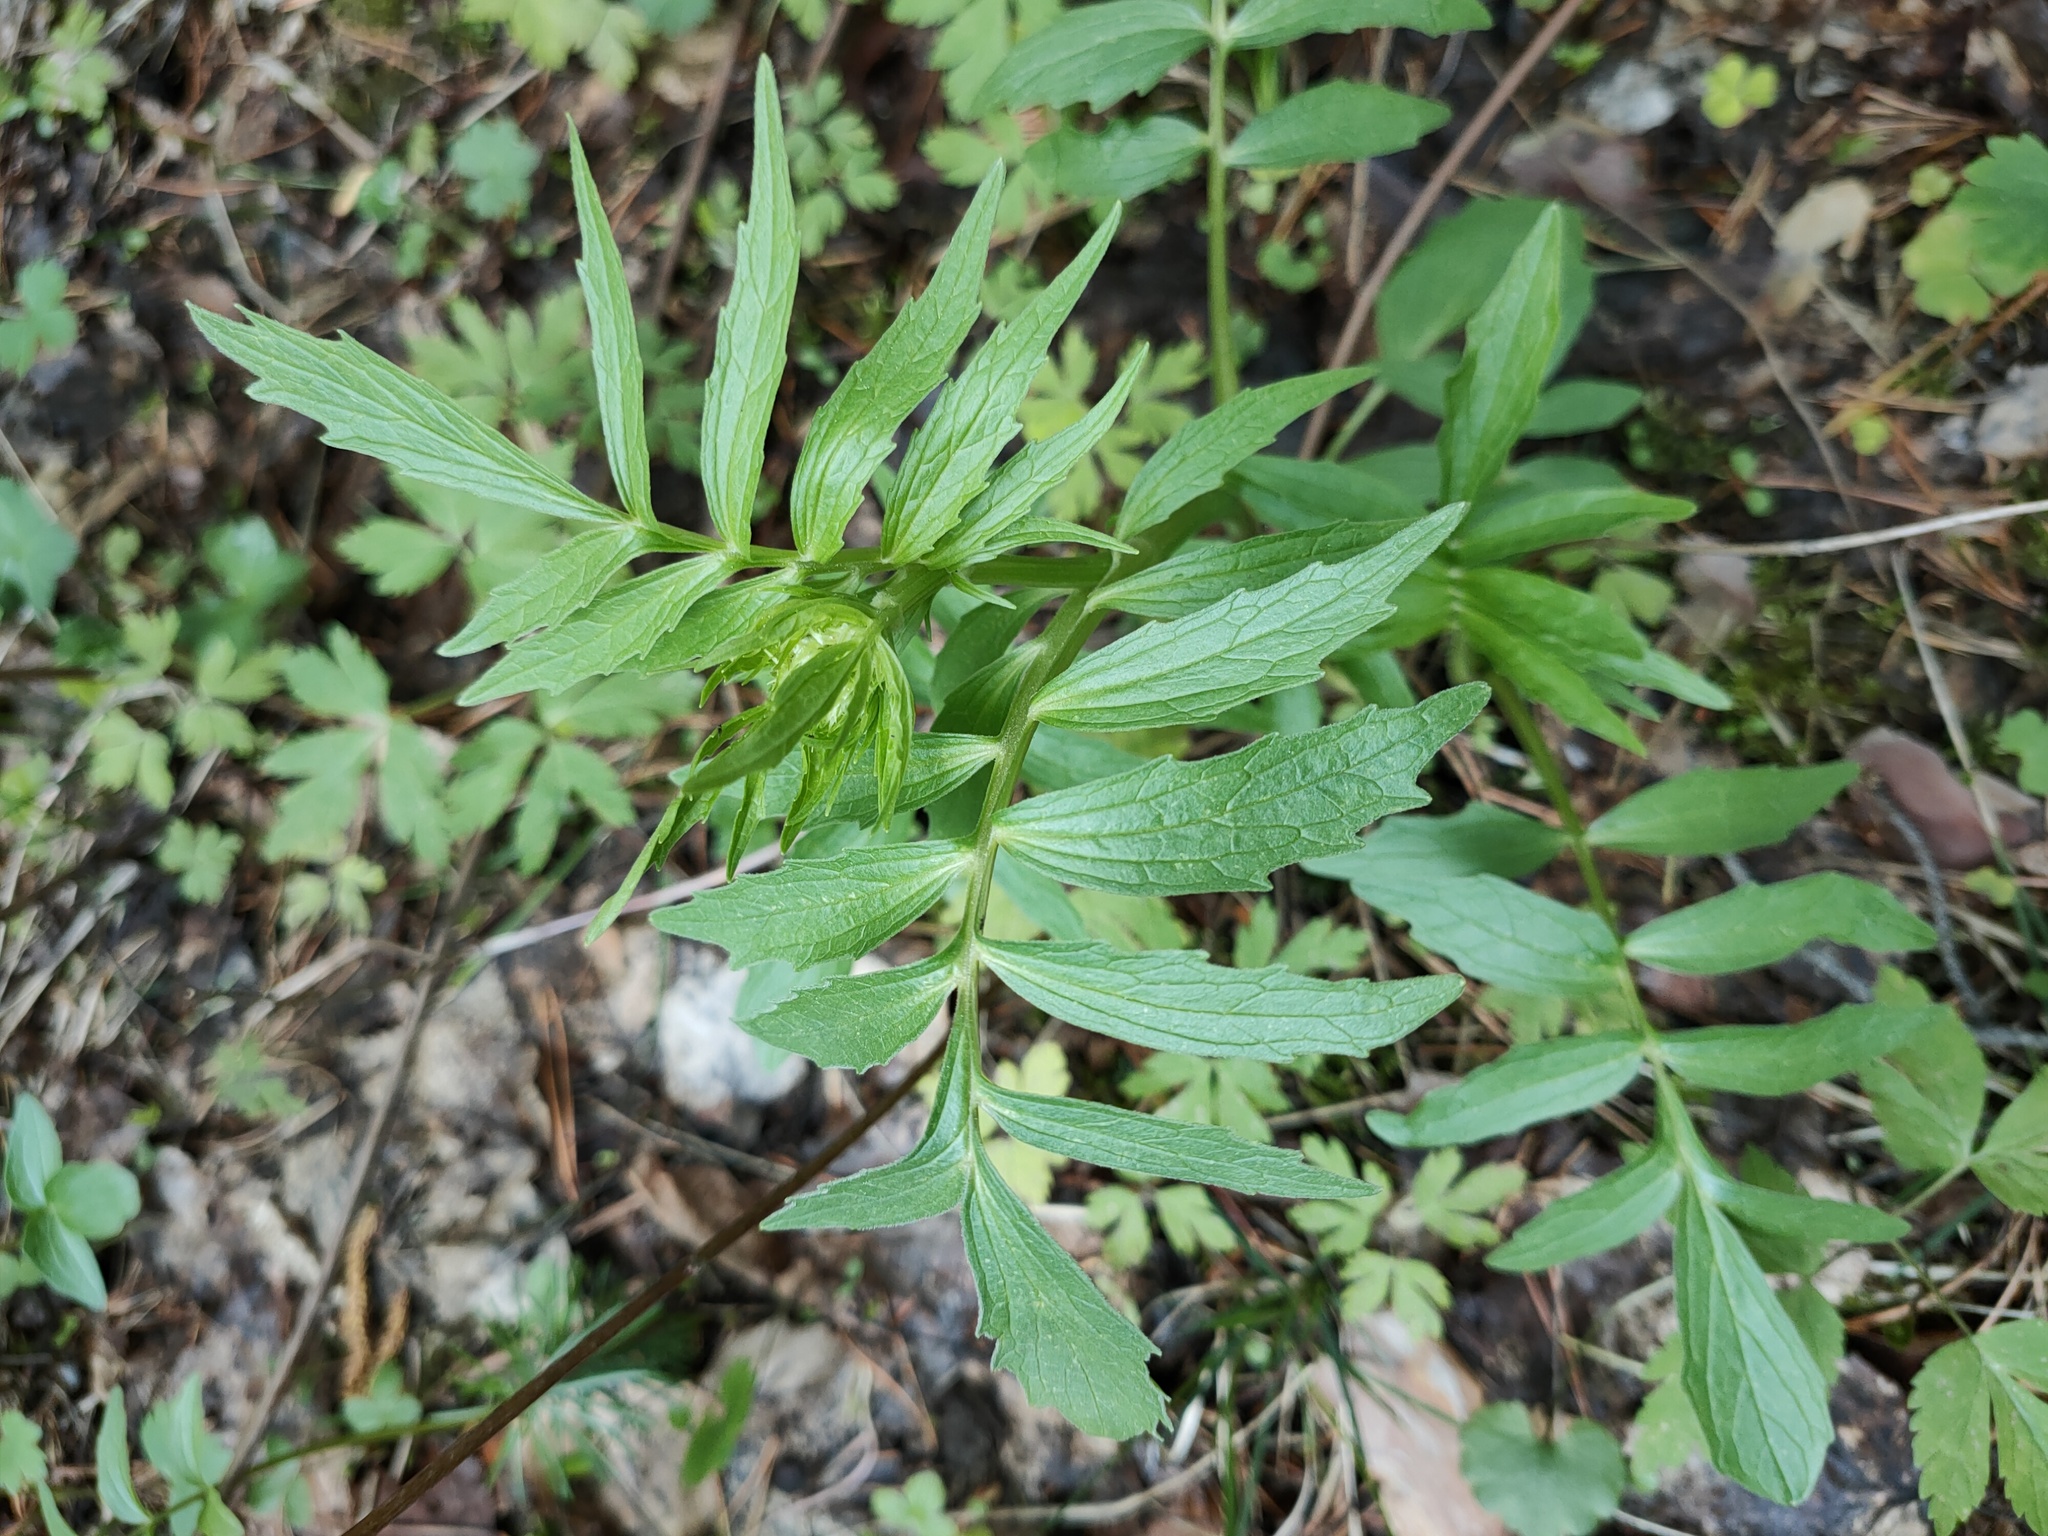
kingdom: Plantae
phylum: Tracheophyta
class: Magnoliopsida
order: Dipsacales
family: Caprifoliaceae
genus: Valeriana
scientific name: Valeriana wolgensis
